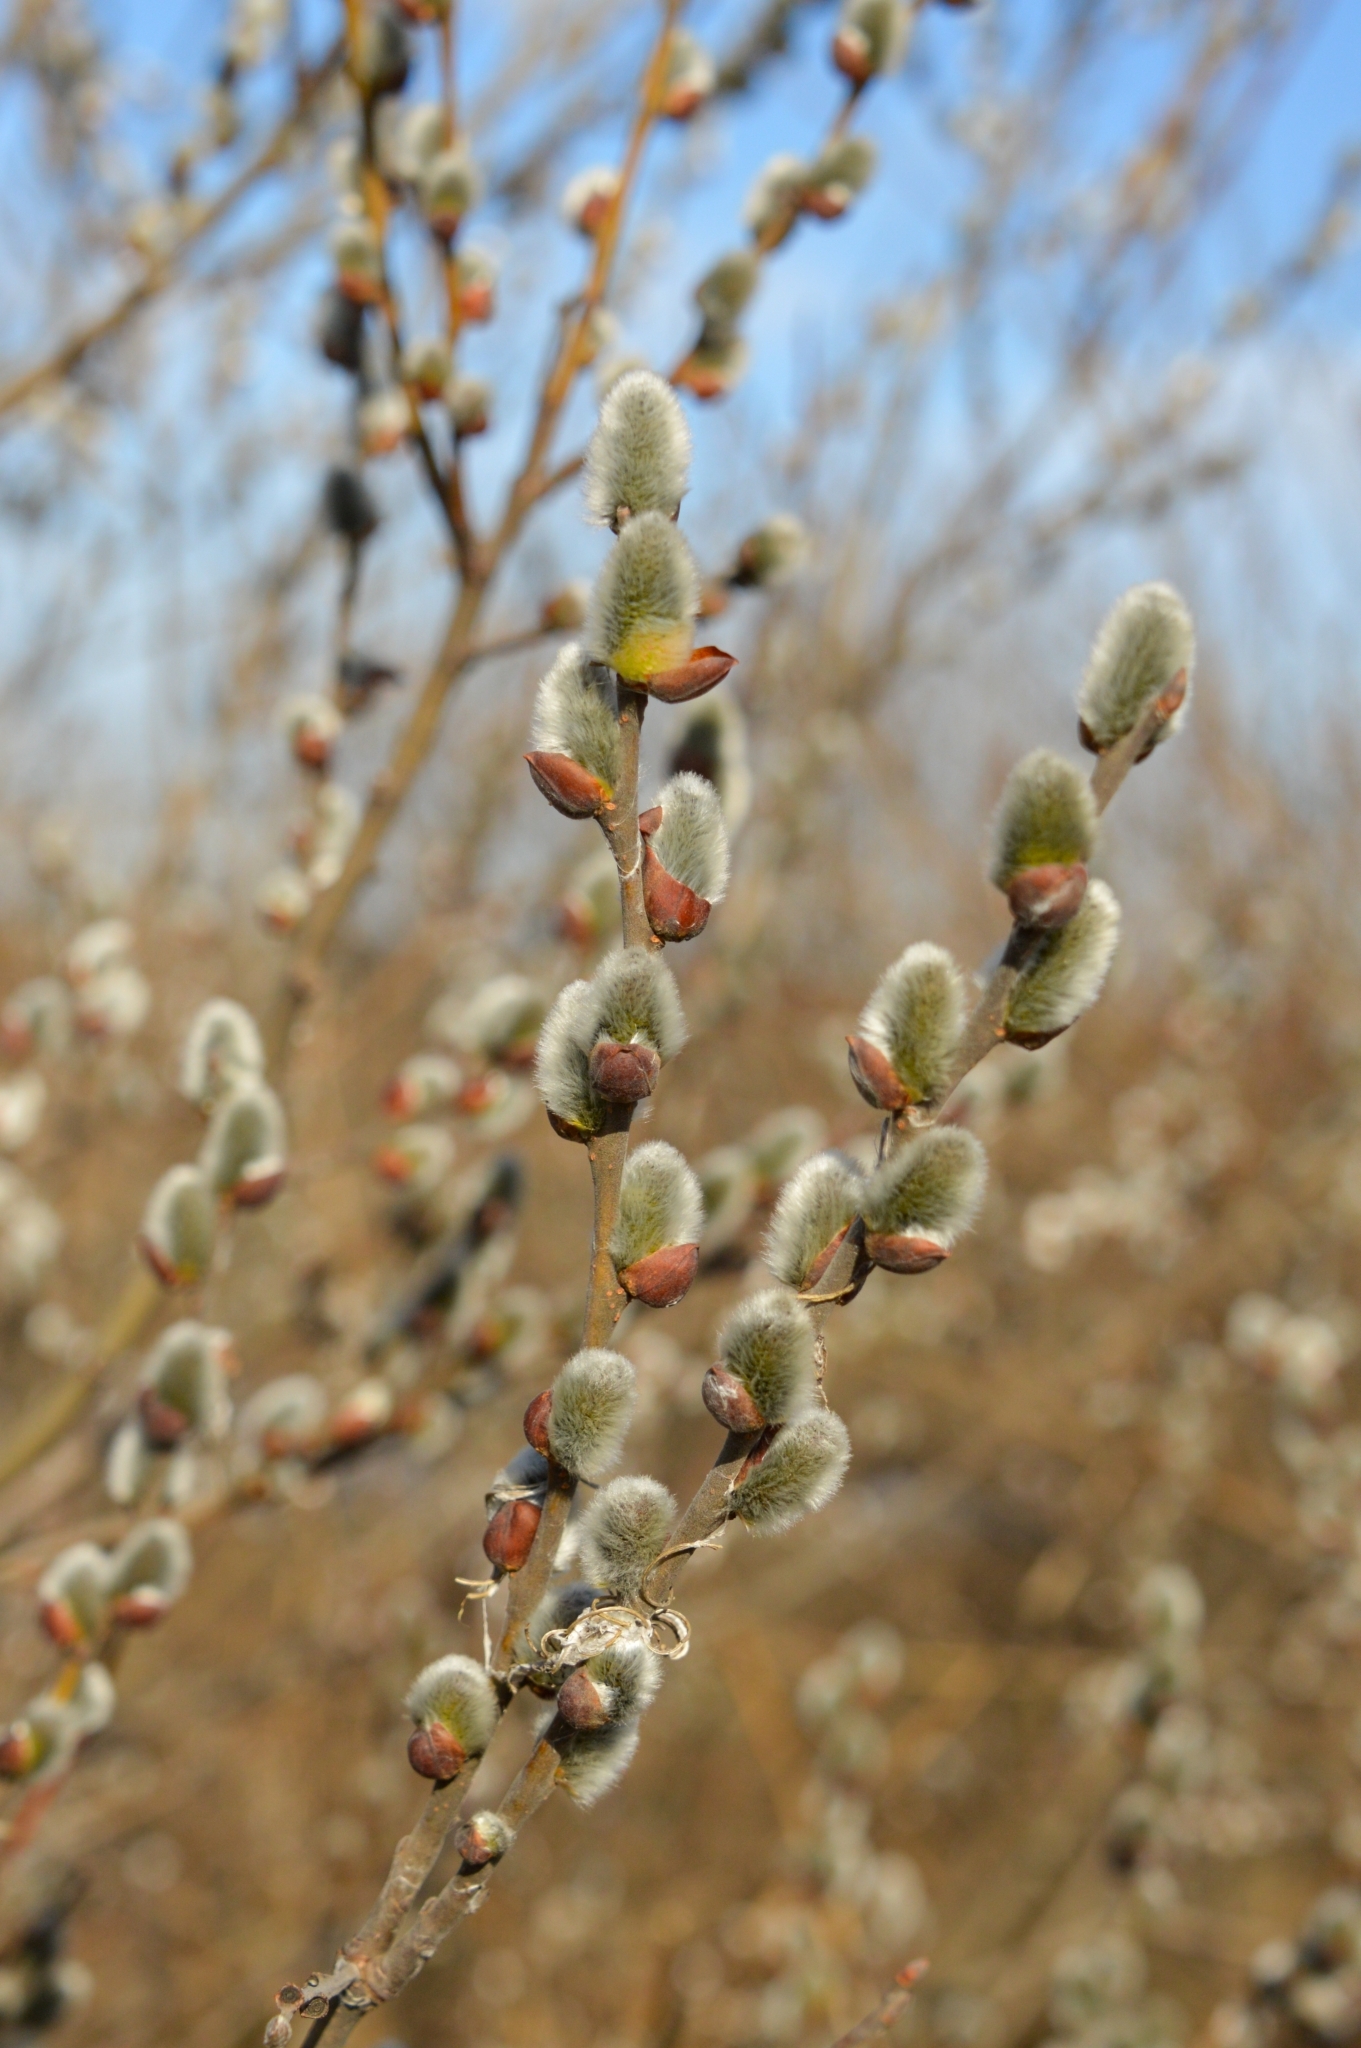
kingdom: Plantae
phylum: Tracheophyta
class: Magnoliopsida
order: Malpighiales
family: Salicaceae
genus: Salix
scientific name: Salix caprea
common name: Goat willow
